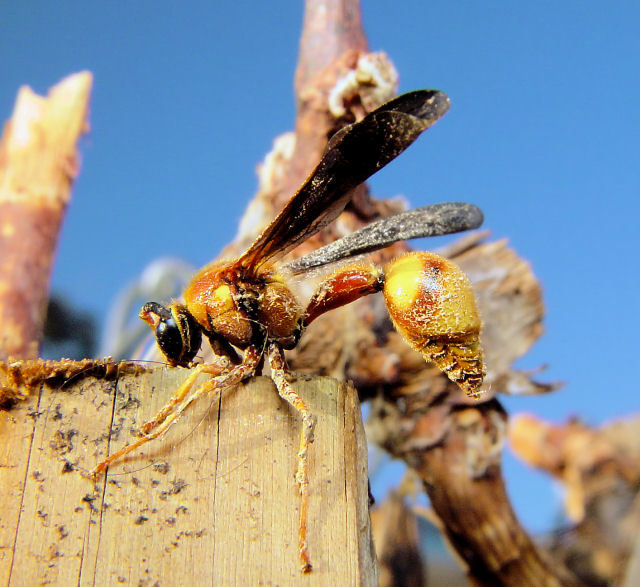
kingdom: Animalia
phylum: Arthropoda
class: Insecta
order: Hymenoptera
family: Vespidae
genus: Eumenes
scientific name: Eumenes bollii
